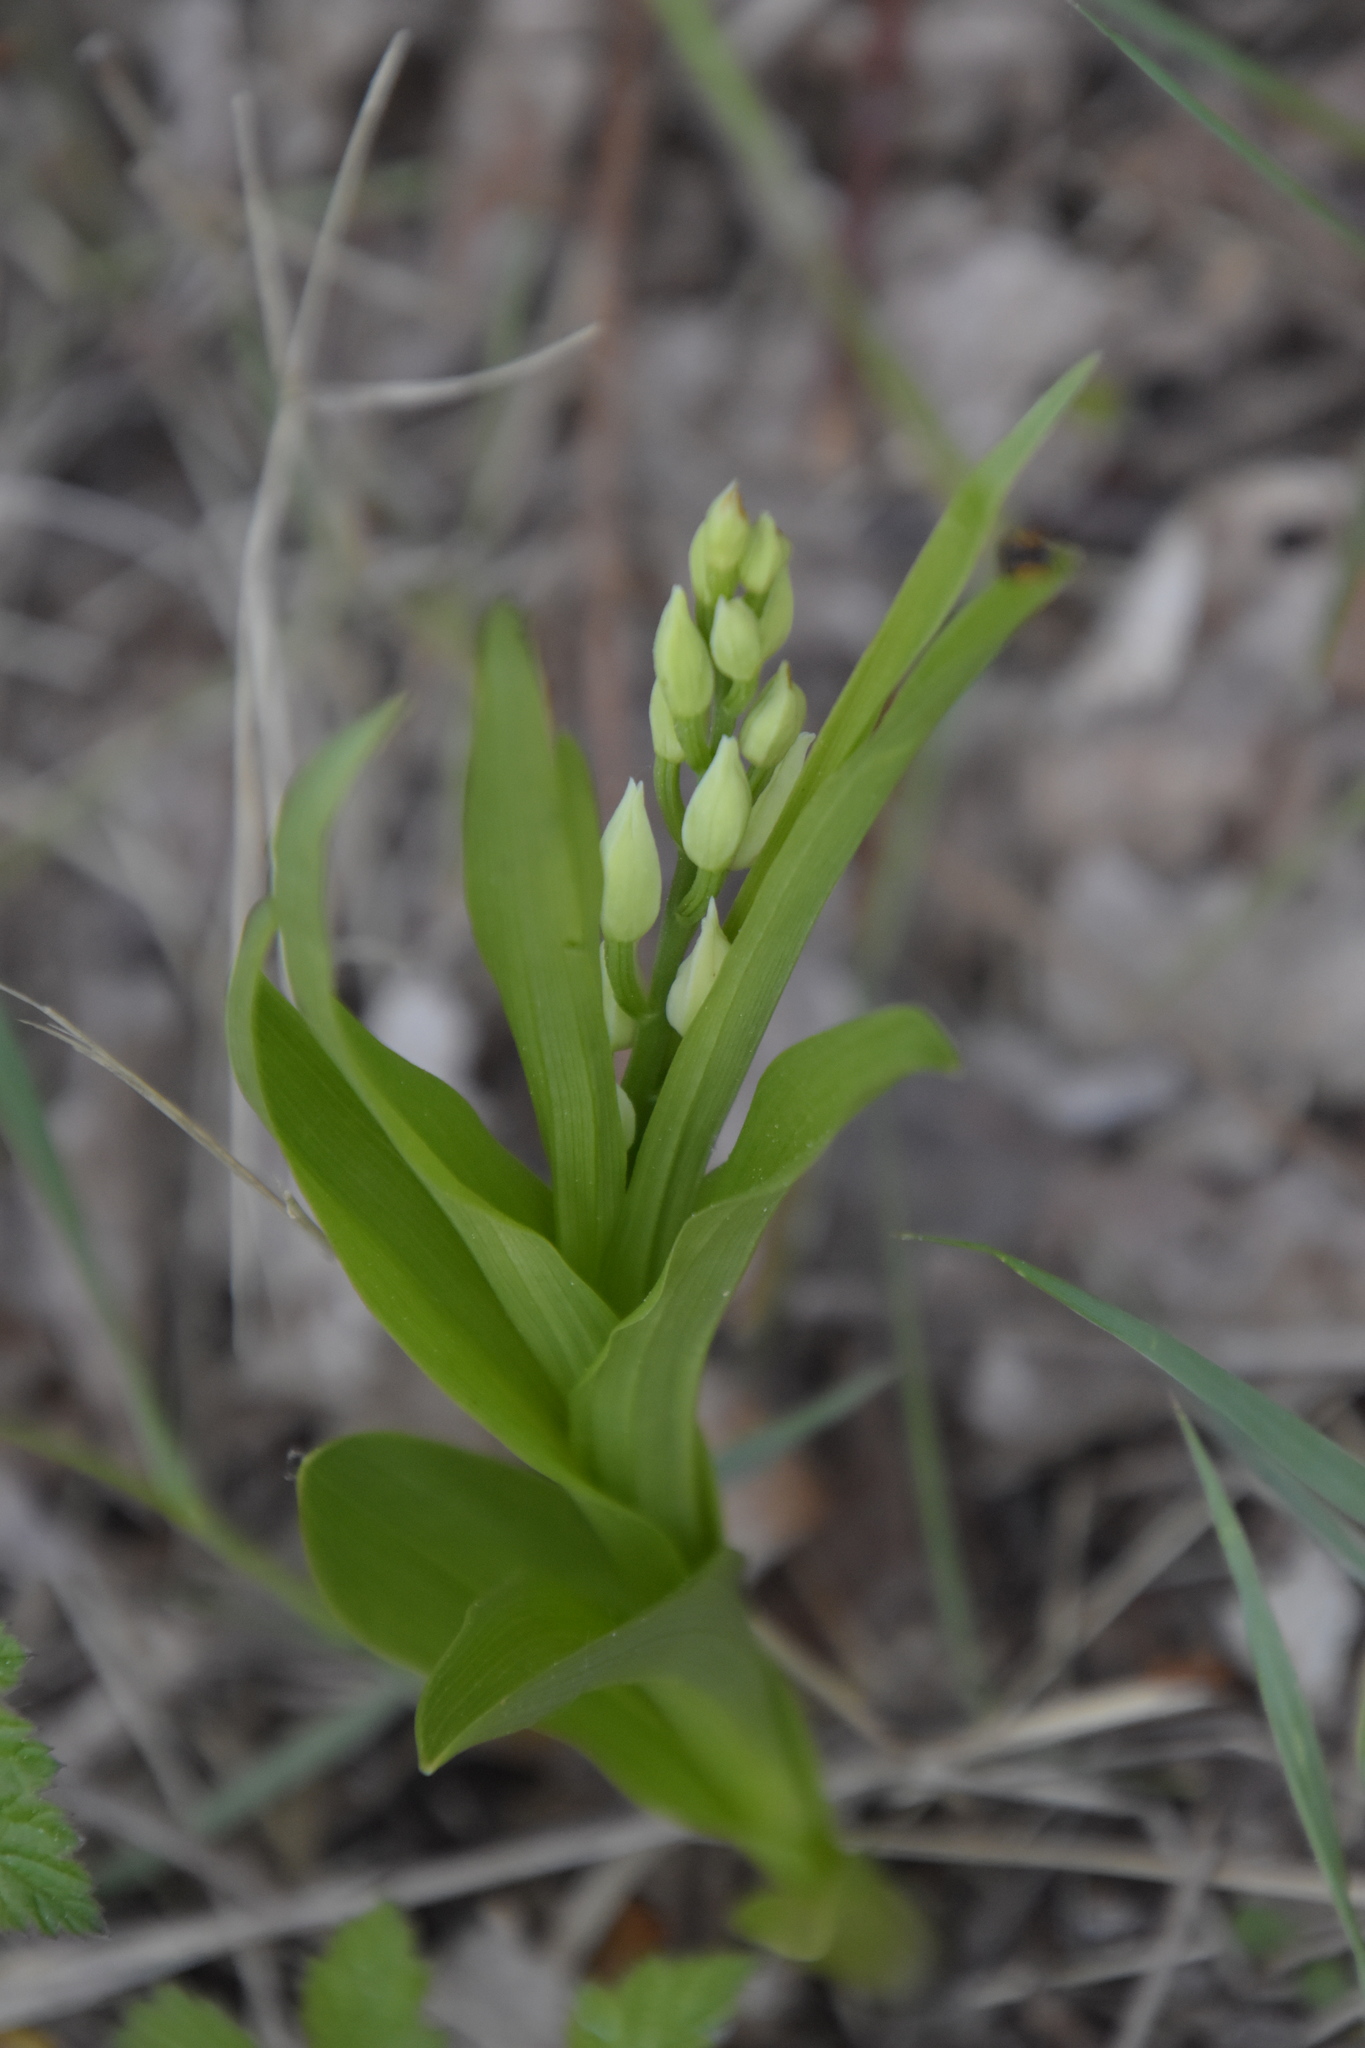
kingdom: Plantae
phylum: Tracheophyta
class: Liliopsida
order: Asparagales
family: Orchidaceae
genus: Cephalanthera
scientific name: Cephalanthera longifolia
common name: Narrow-leaved helleborine
